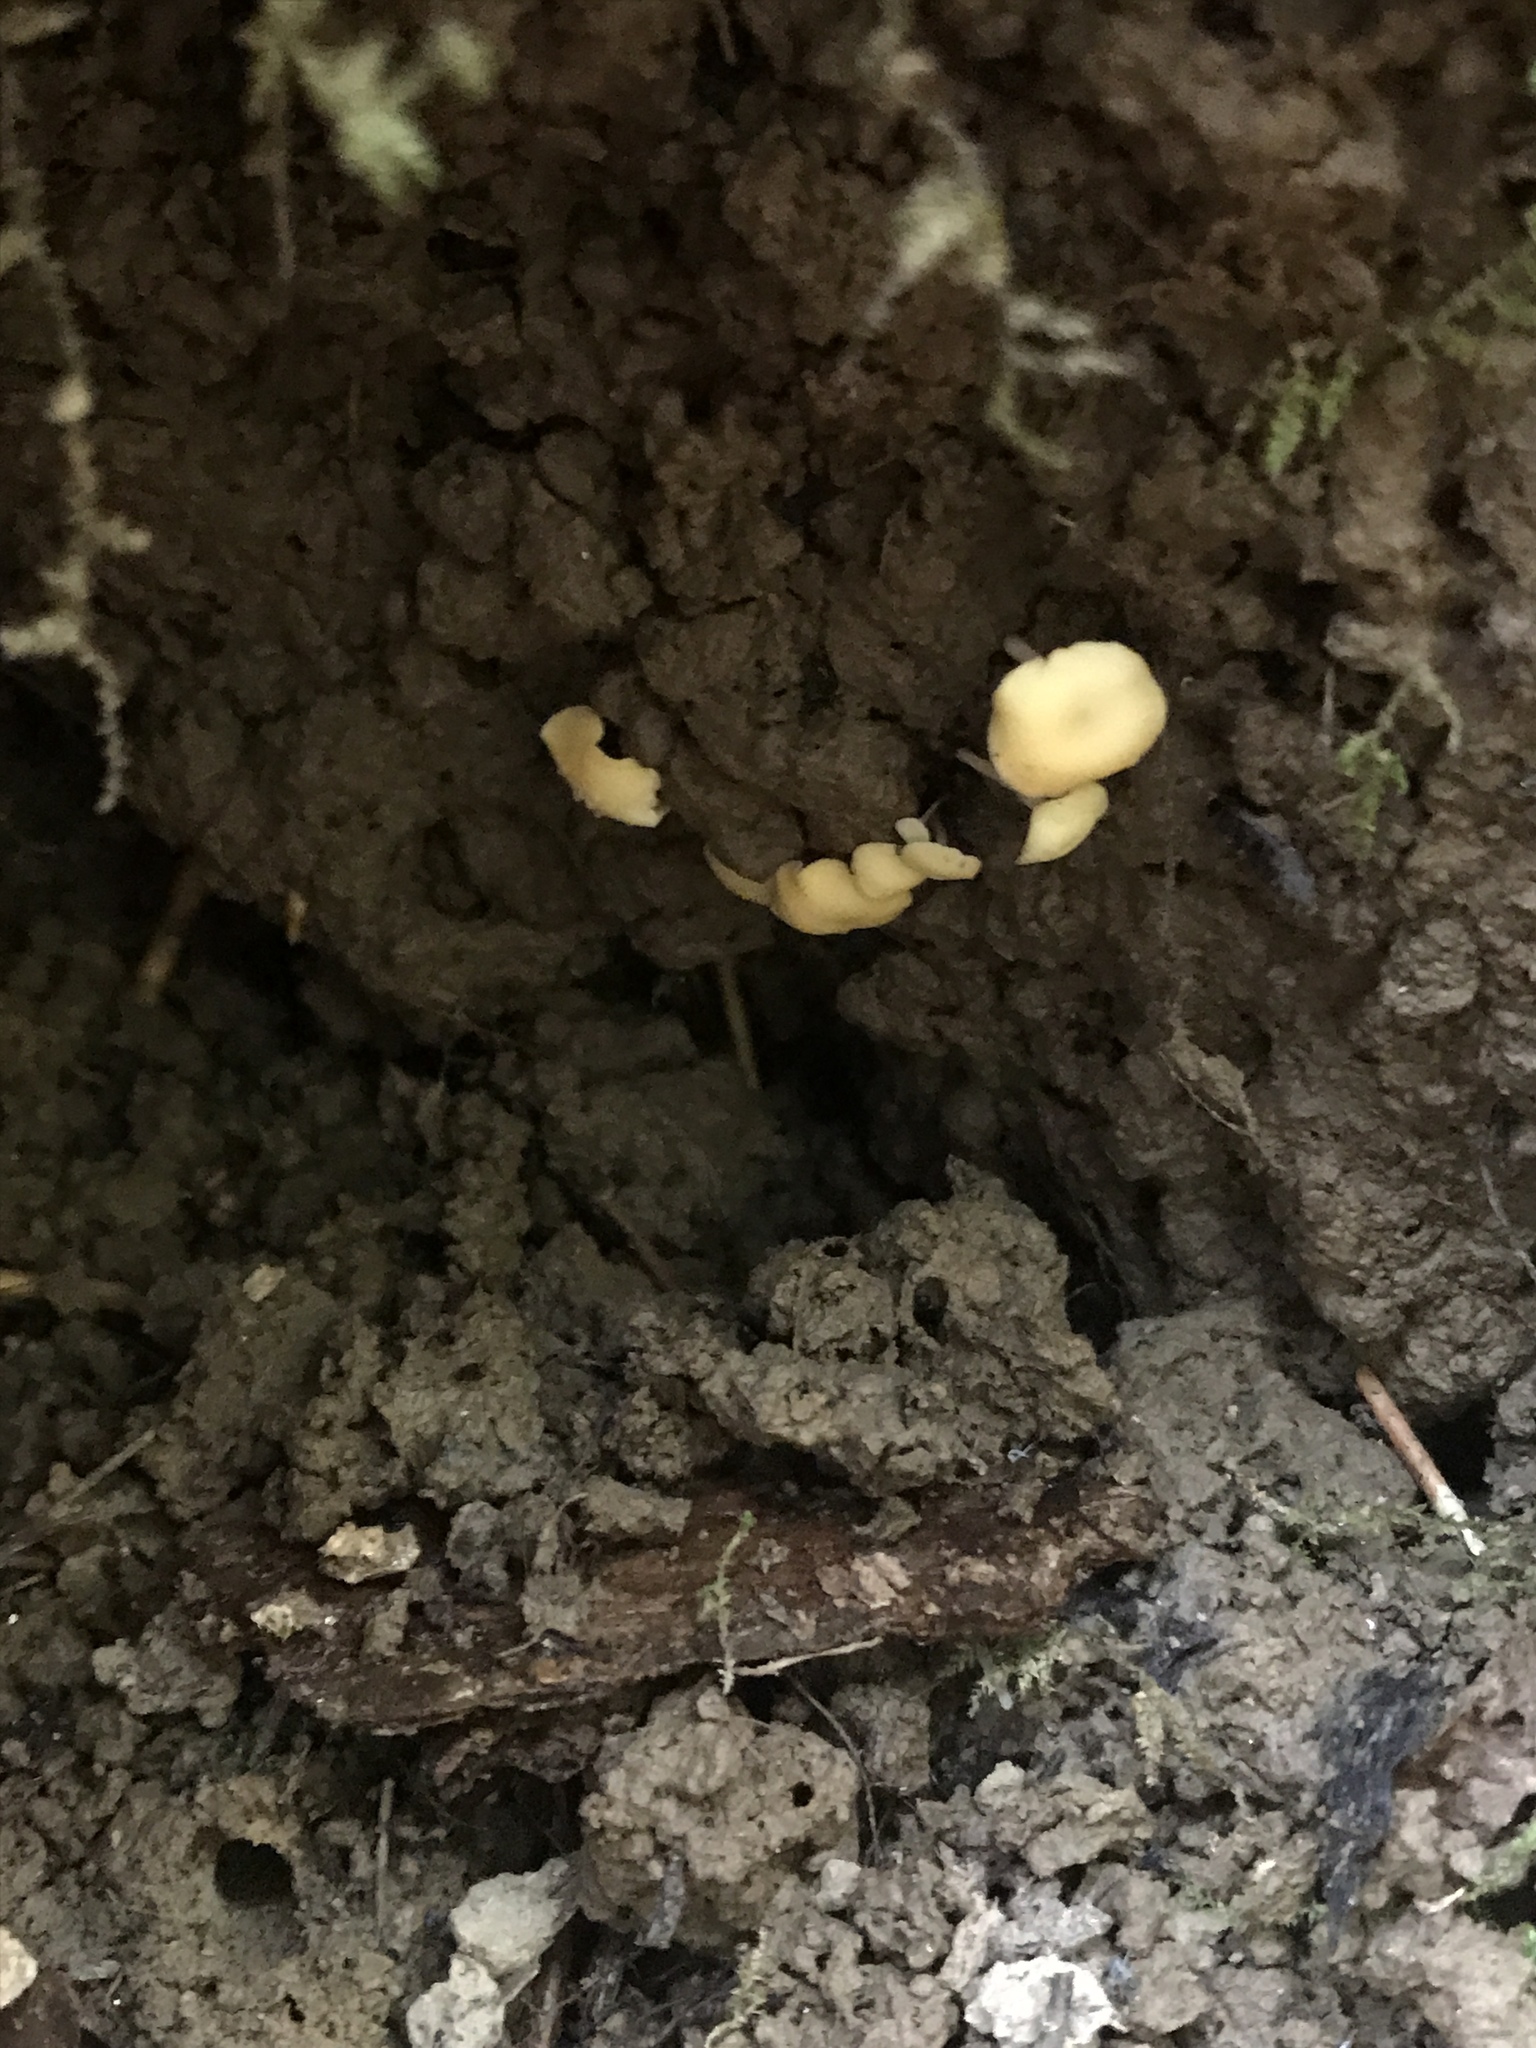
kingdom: Fungi
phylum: Ascomycota
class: Leotiomycetes
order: Helotiales
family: Helotiaceae
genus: Hymenoscyphus
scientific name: Hymenoscyphus fructigenus
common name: Nut disco
